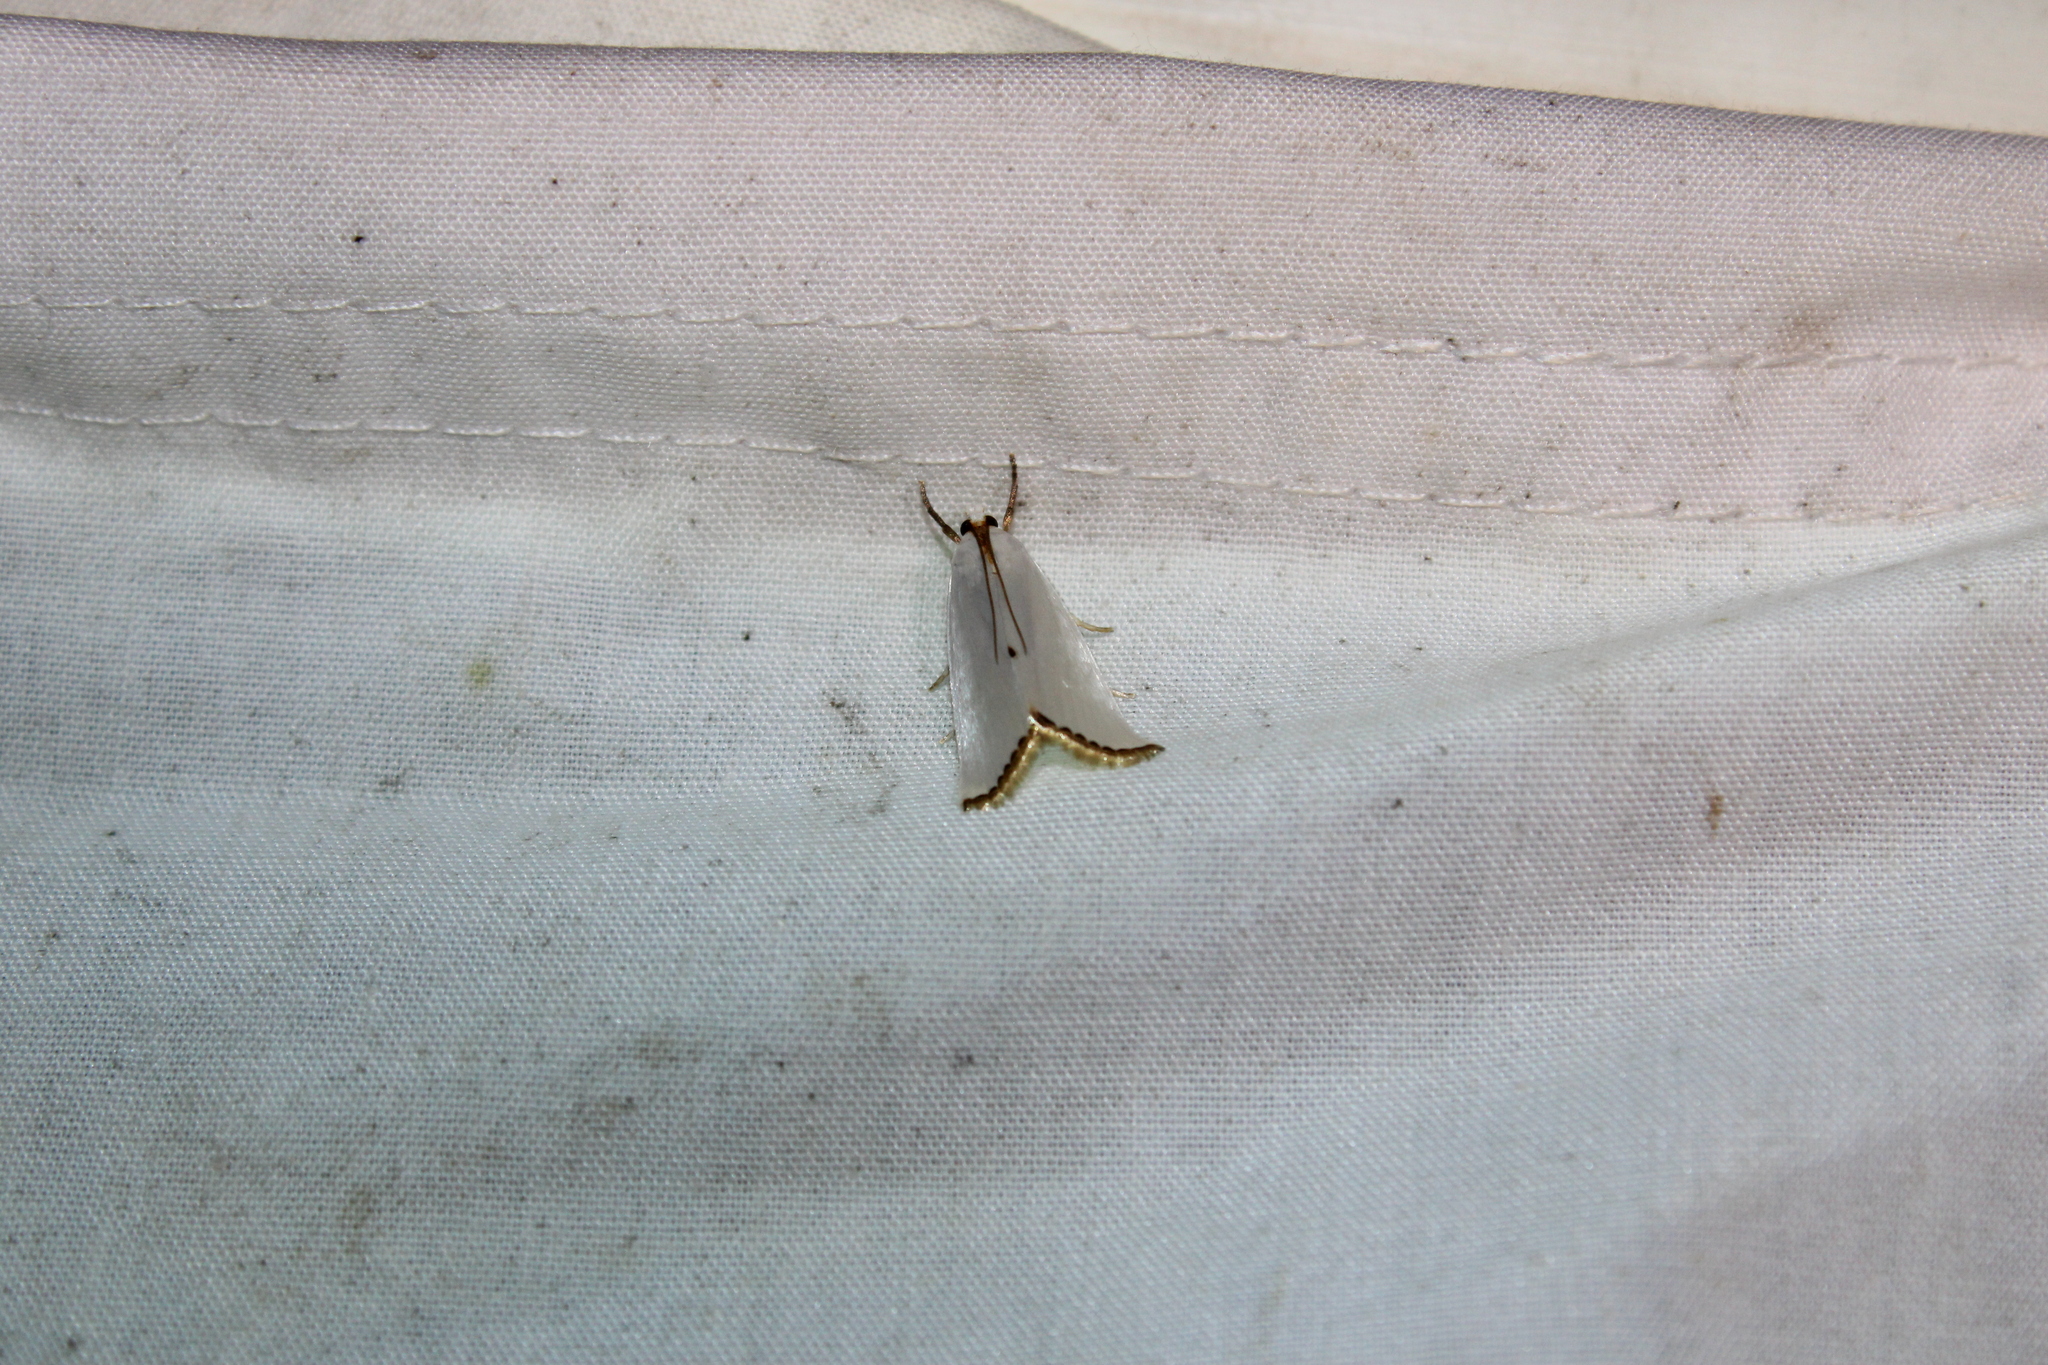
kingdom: Animalia
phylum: Arthropoda
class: Insecta
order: Lepidoptera
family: Crambidae
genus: Argyria
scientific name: Argyria nivalis
